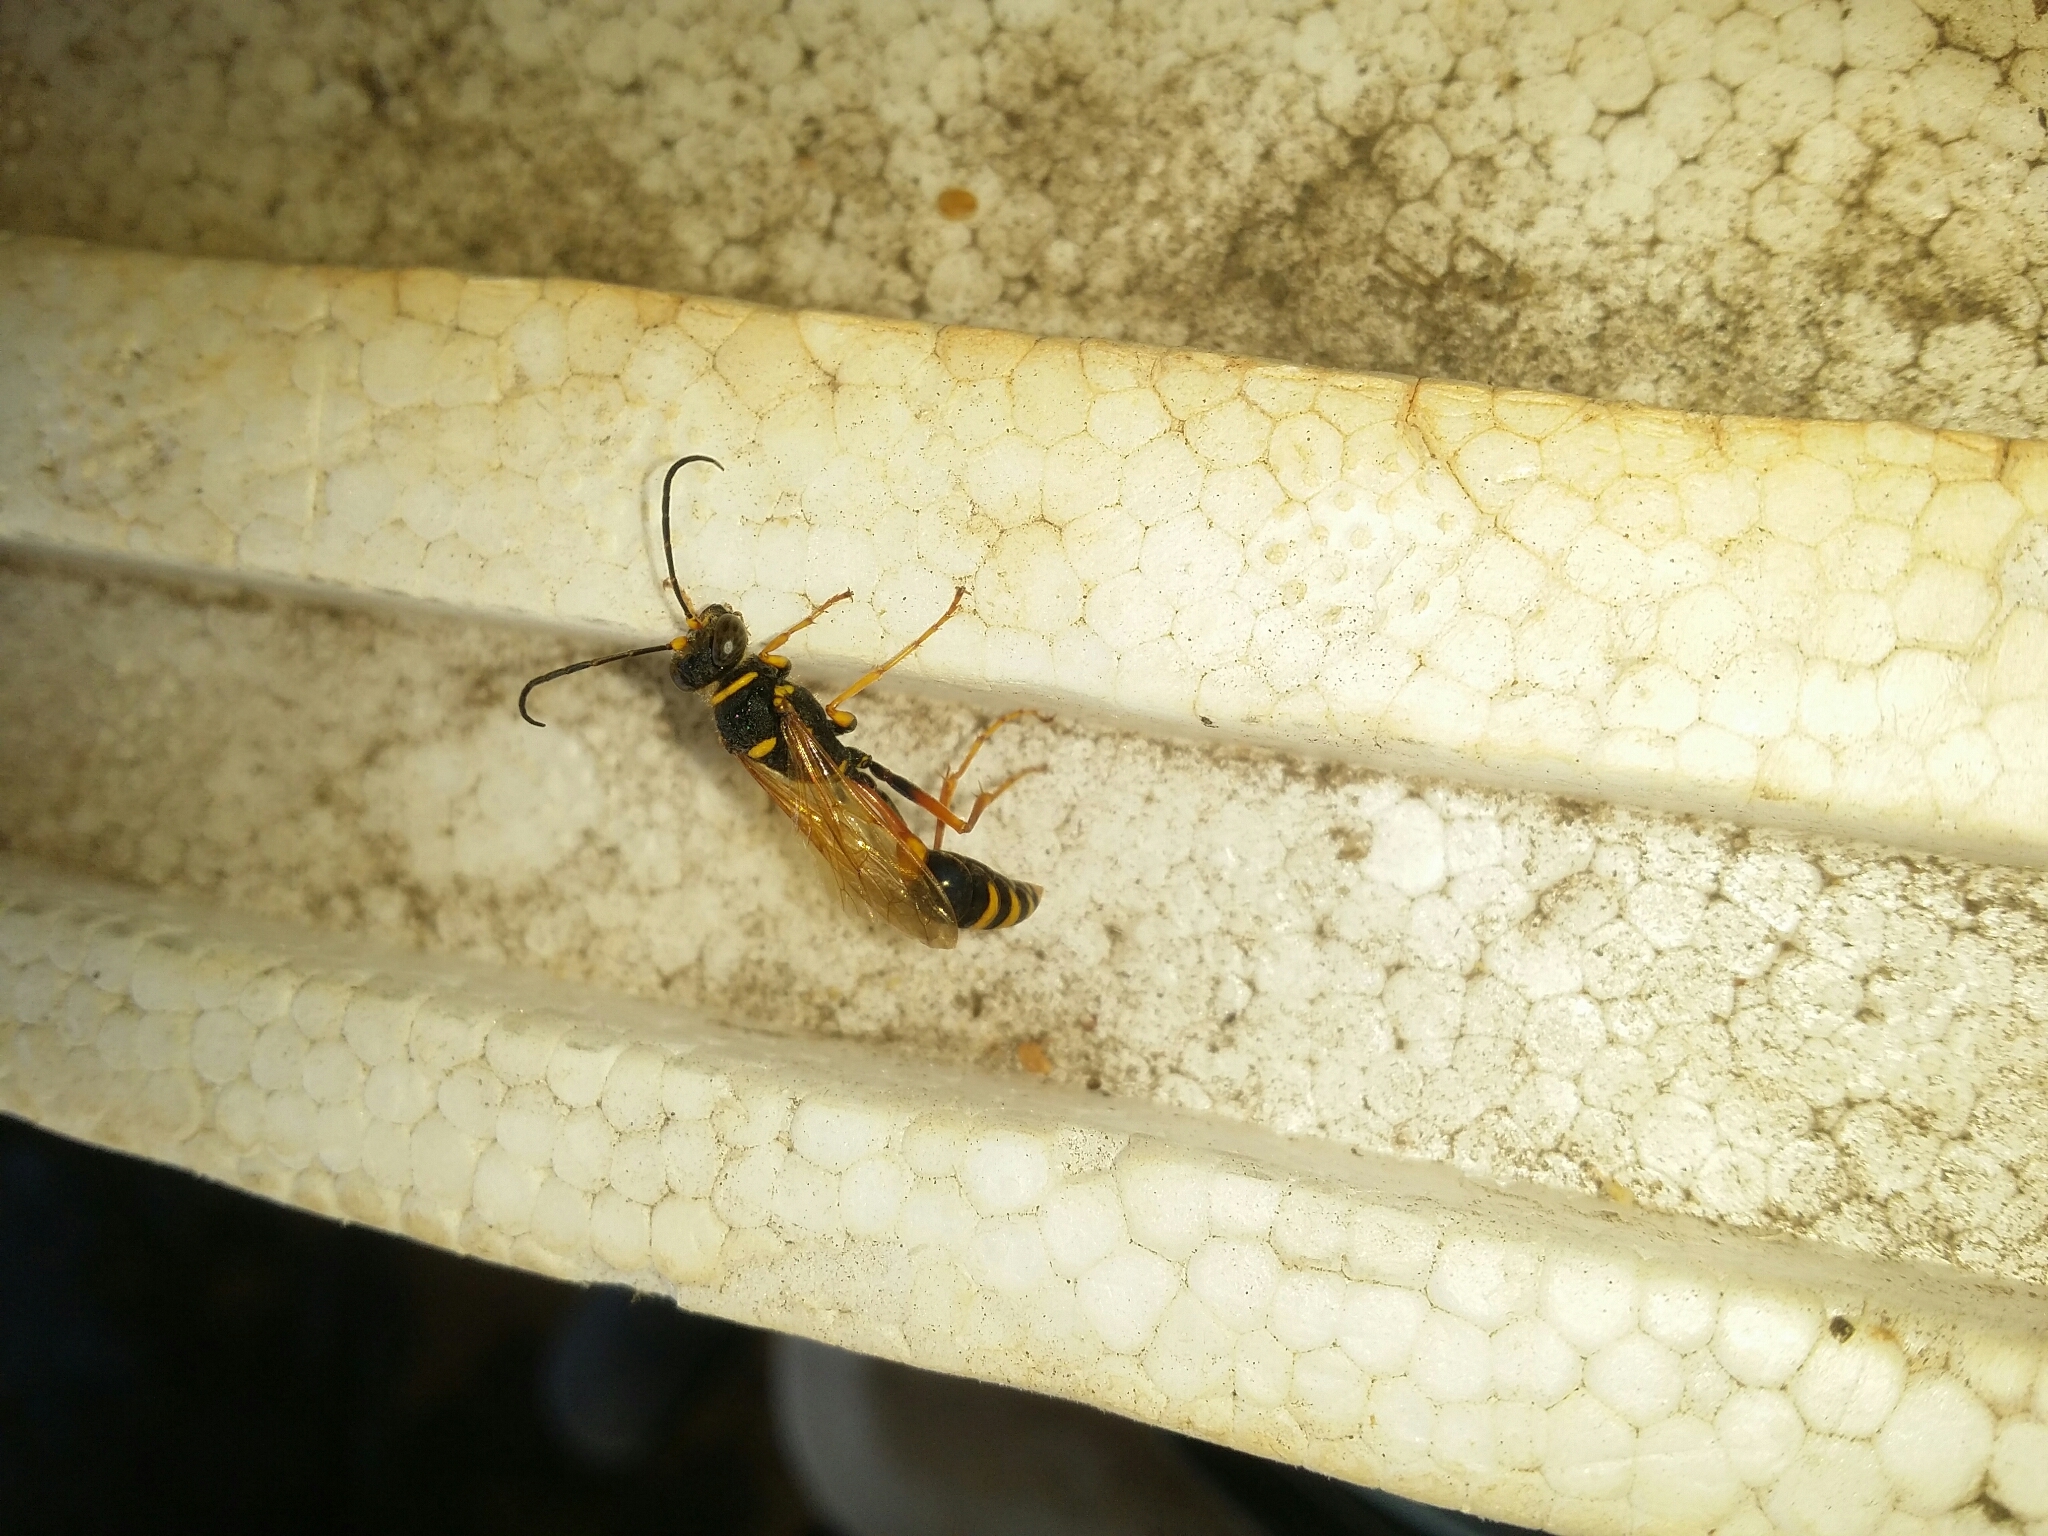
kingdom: Animalia
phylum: Arthropoda
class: Insecta
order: Hymenoptera
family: Sphecidae
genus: Sceliphron
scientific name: Sceliphron formosum
